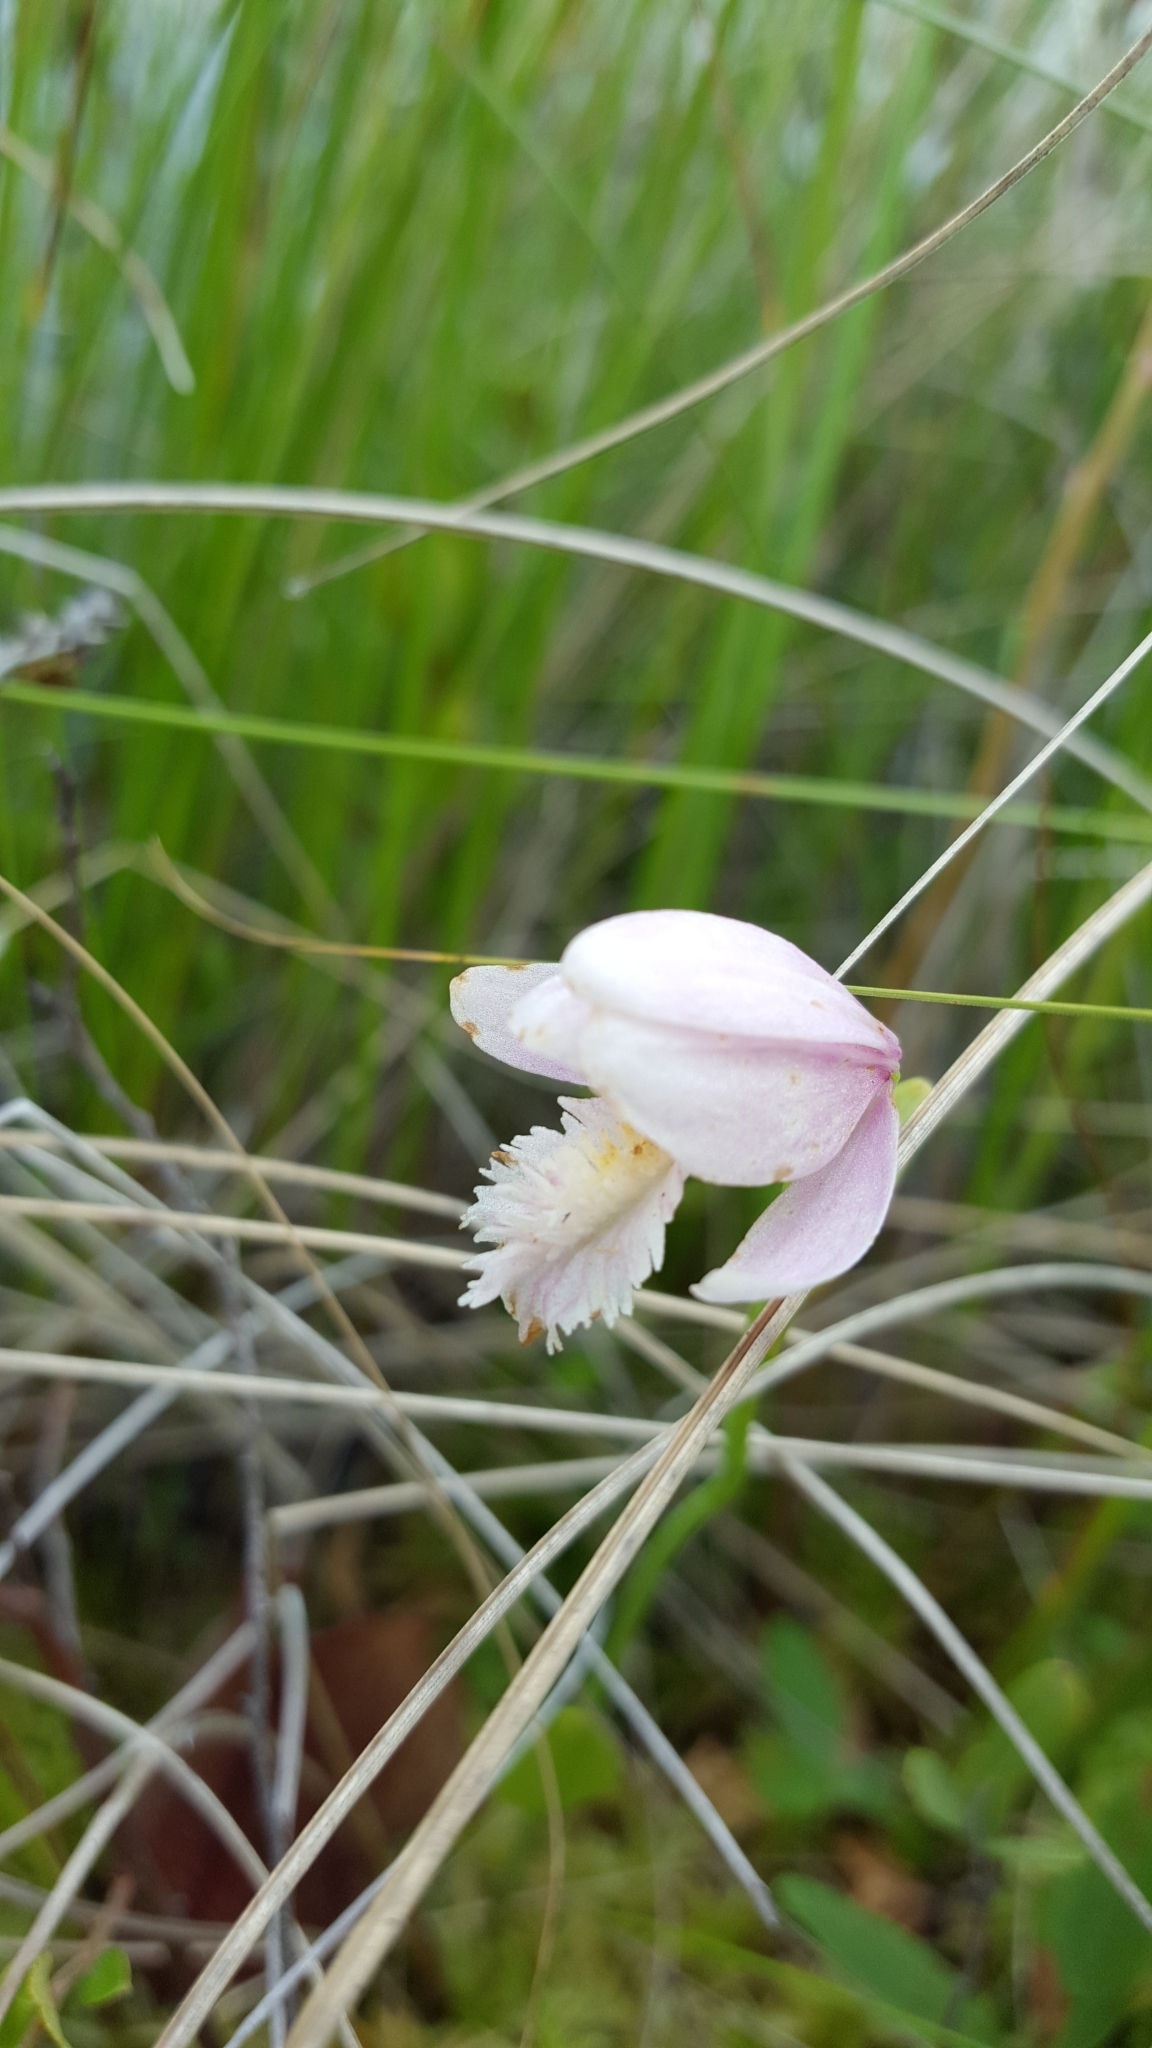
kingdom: Plantae
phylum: Tracheophyta
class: Liliopsida
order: Asparagales
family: Orchidaceae
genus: Pogonia
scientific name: Pogonia ophioglossoides
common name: Rose pogonia
